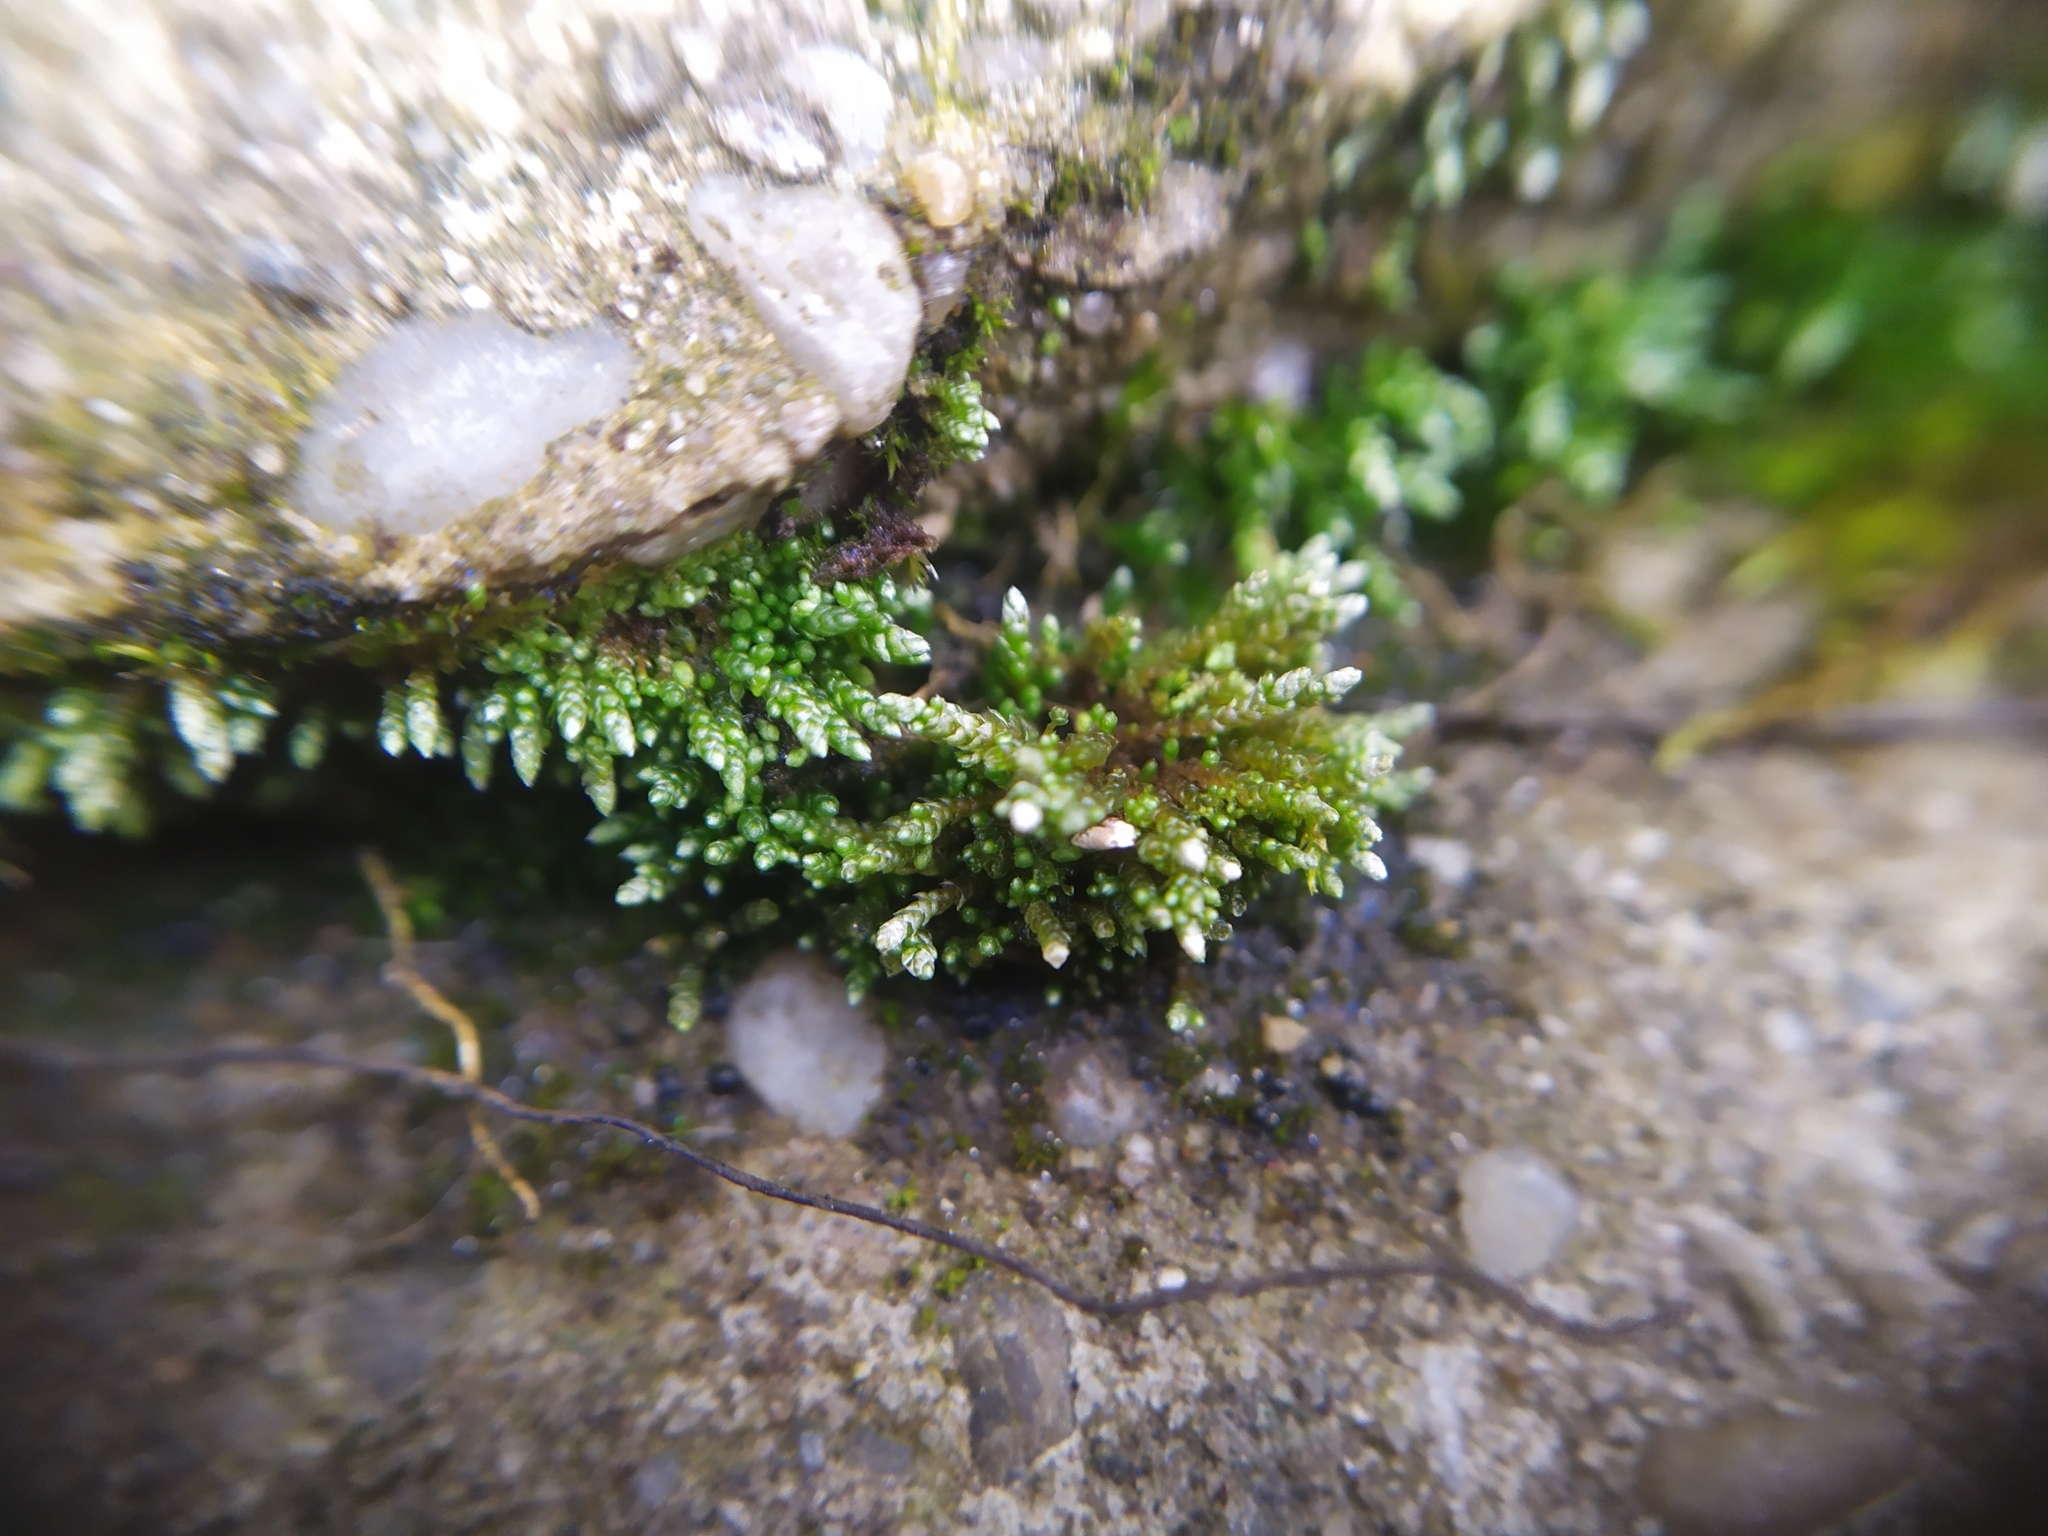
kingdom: Plantae
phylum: Bryophyta
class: Bryopsida
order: Bryales
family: Bryaceae
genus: Bryum
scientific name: Bryum argenteum
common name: Silver-moss
